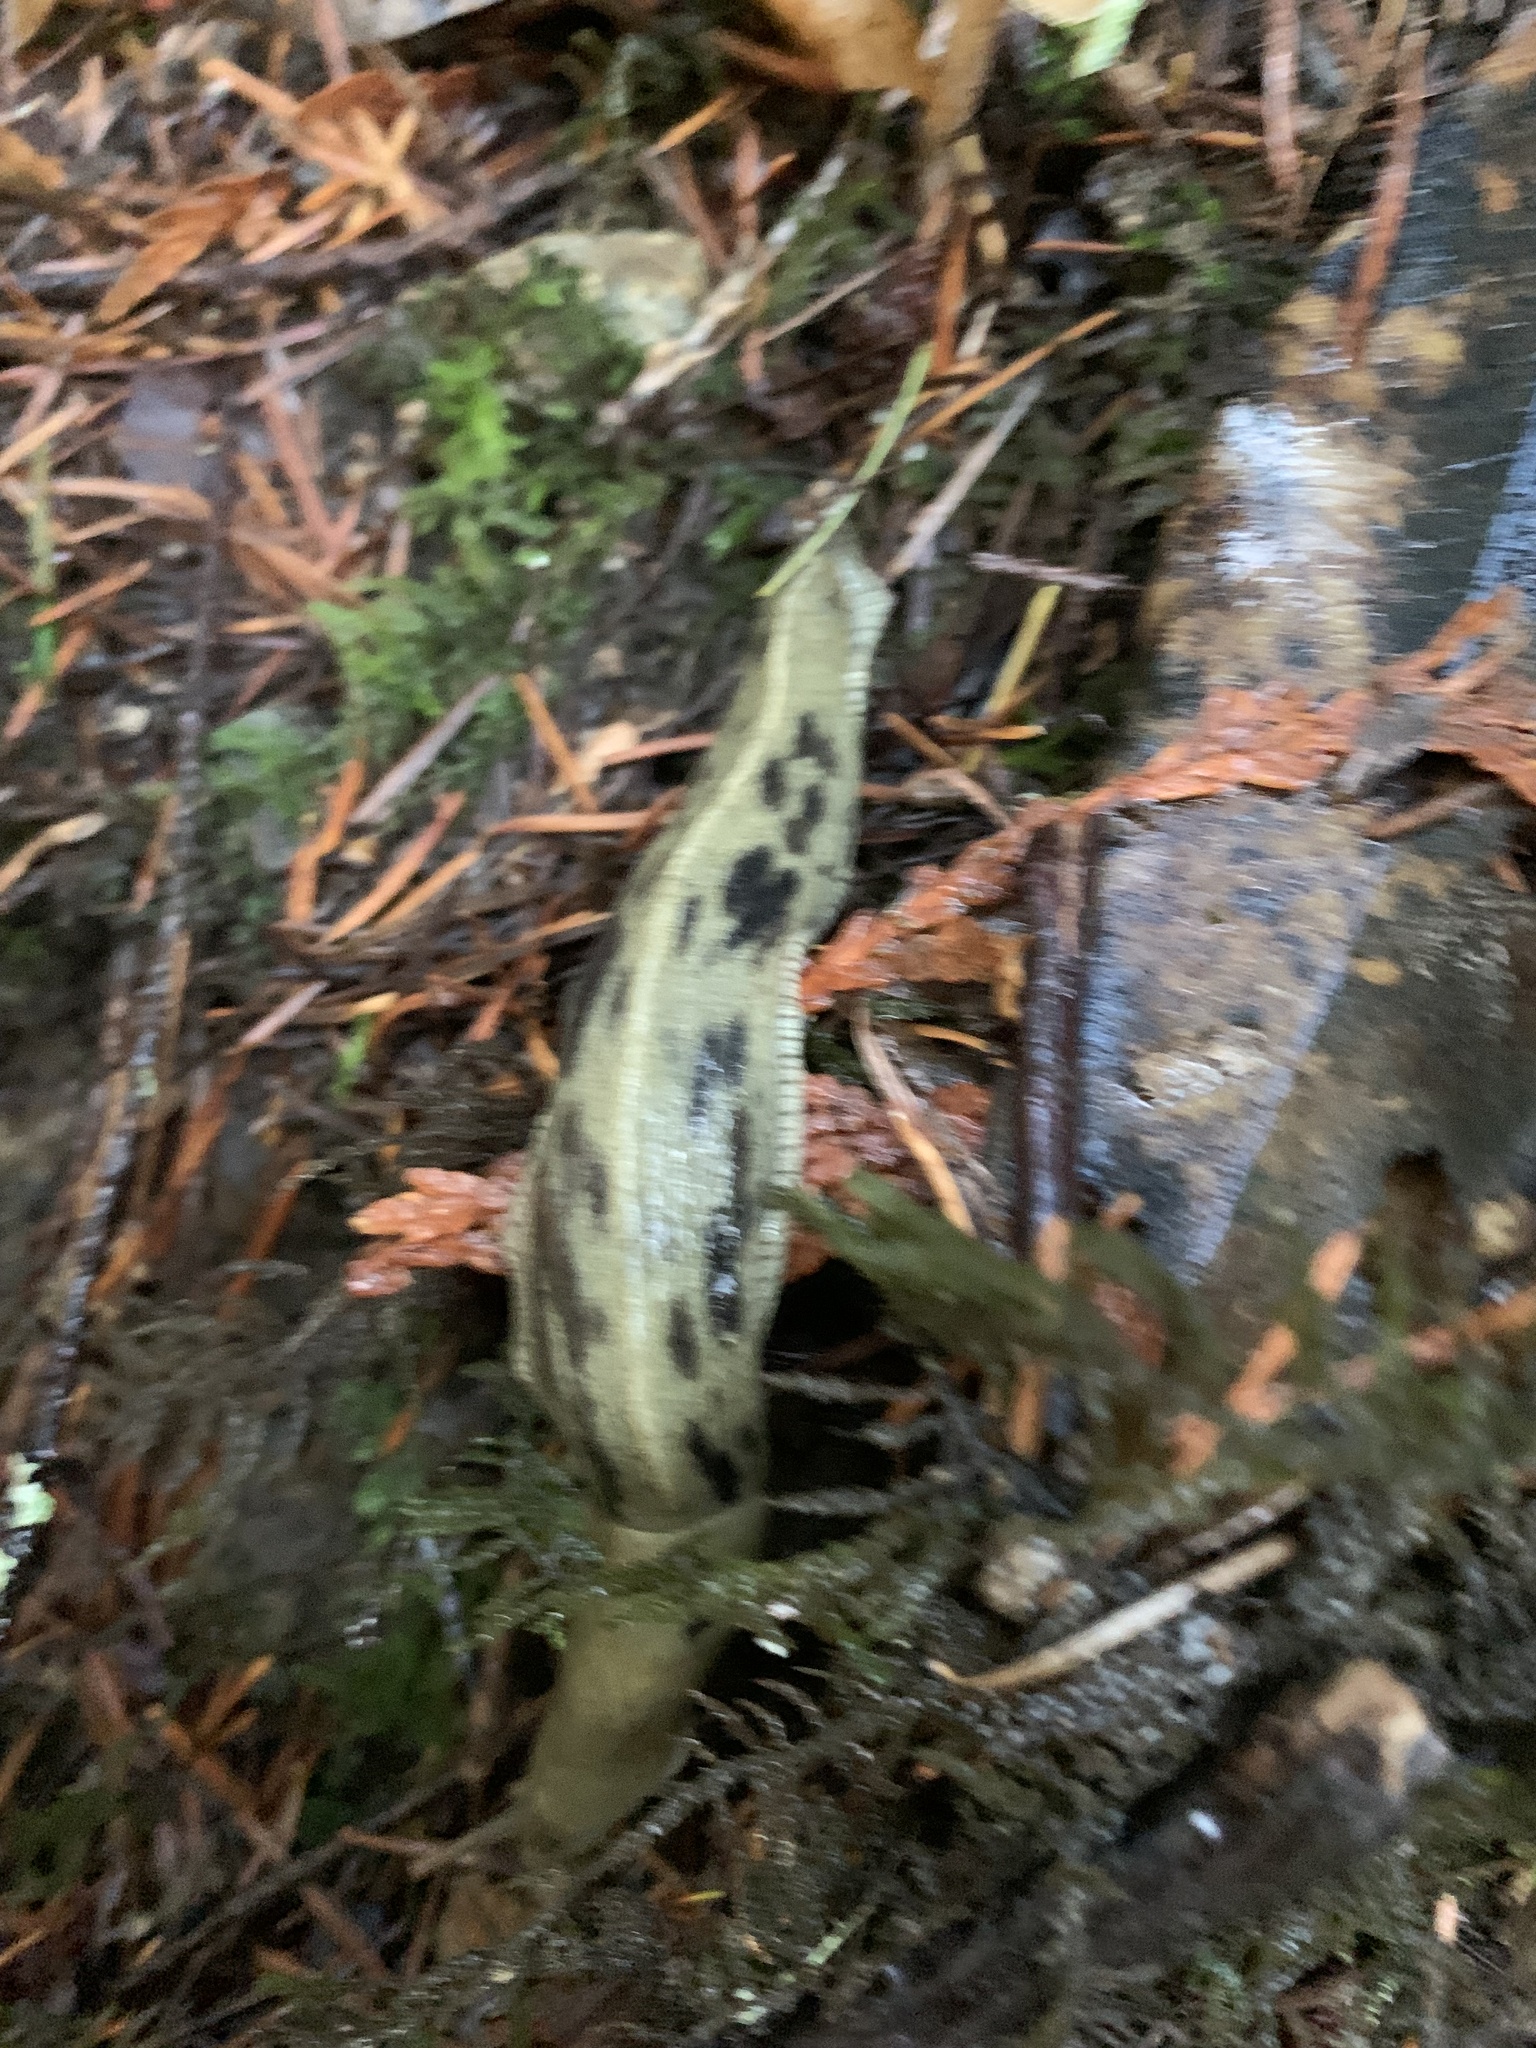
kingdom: Animalia
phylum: Mollusca
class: Gastropoda
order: Stylommatophora
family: Ariolimacidae
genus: Ariolimax
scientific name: Ariolimax columbianus
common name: Pacific banana slug
